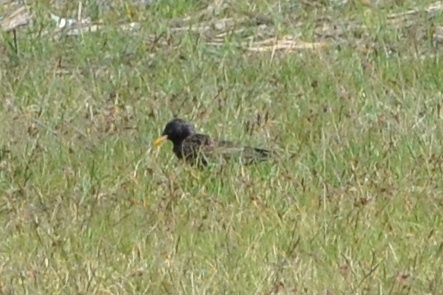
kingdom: Animalia
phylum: Chordata
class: Aves
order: Passeriformes
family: Sturnidae
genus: Sturnus
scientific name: Sturnus vulgaris
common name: Common starling
